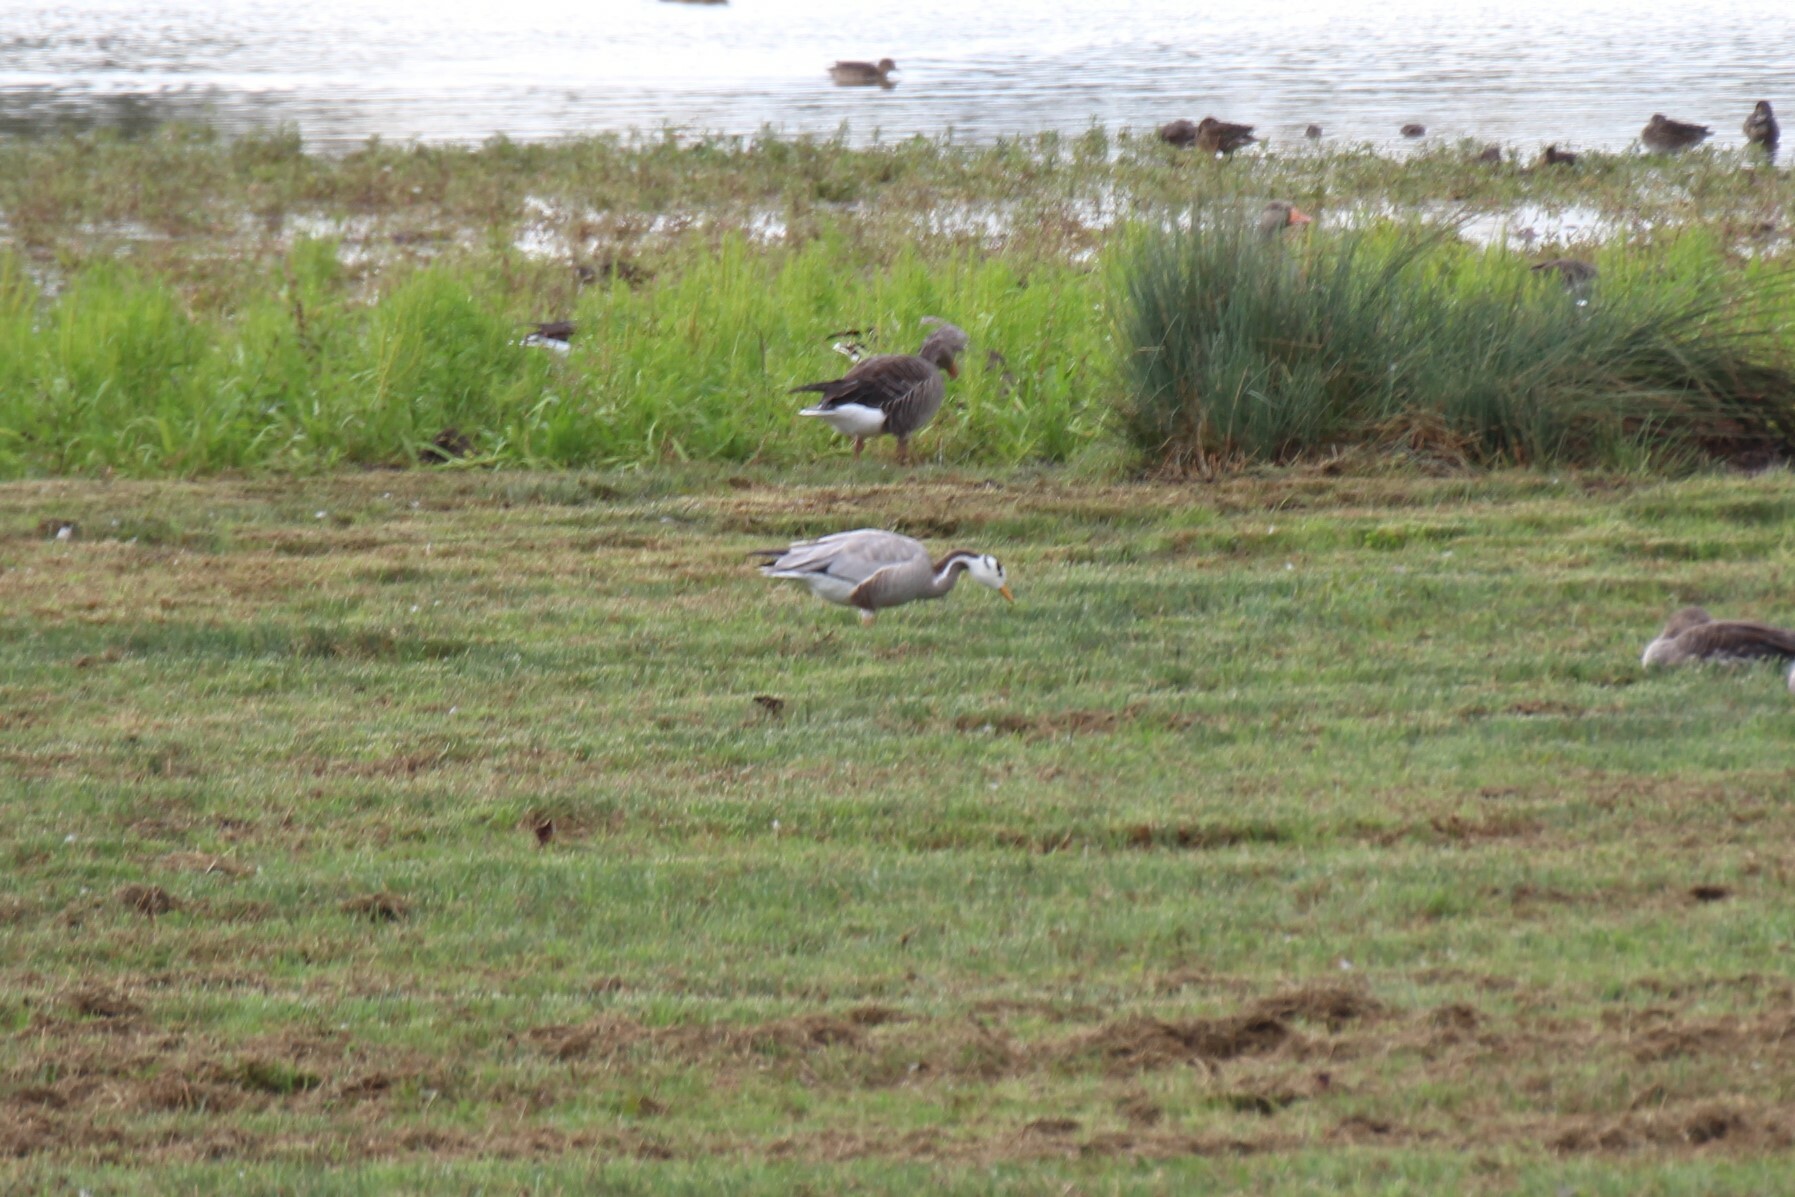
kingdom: Animalia
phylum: Chordata
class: Aves
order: Anseriformes
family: Anatidae
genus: Anser
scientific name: Anser indicus
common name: Bar-headed goose
